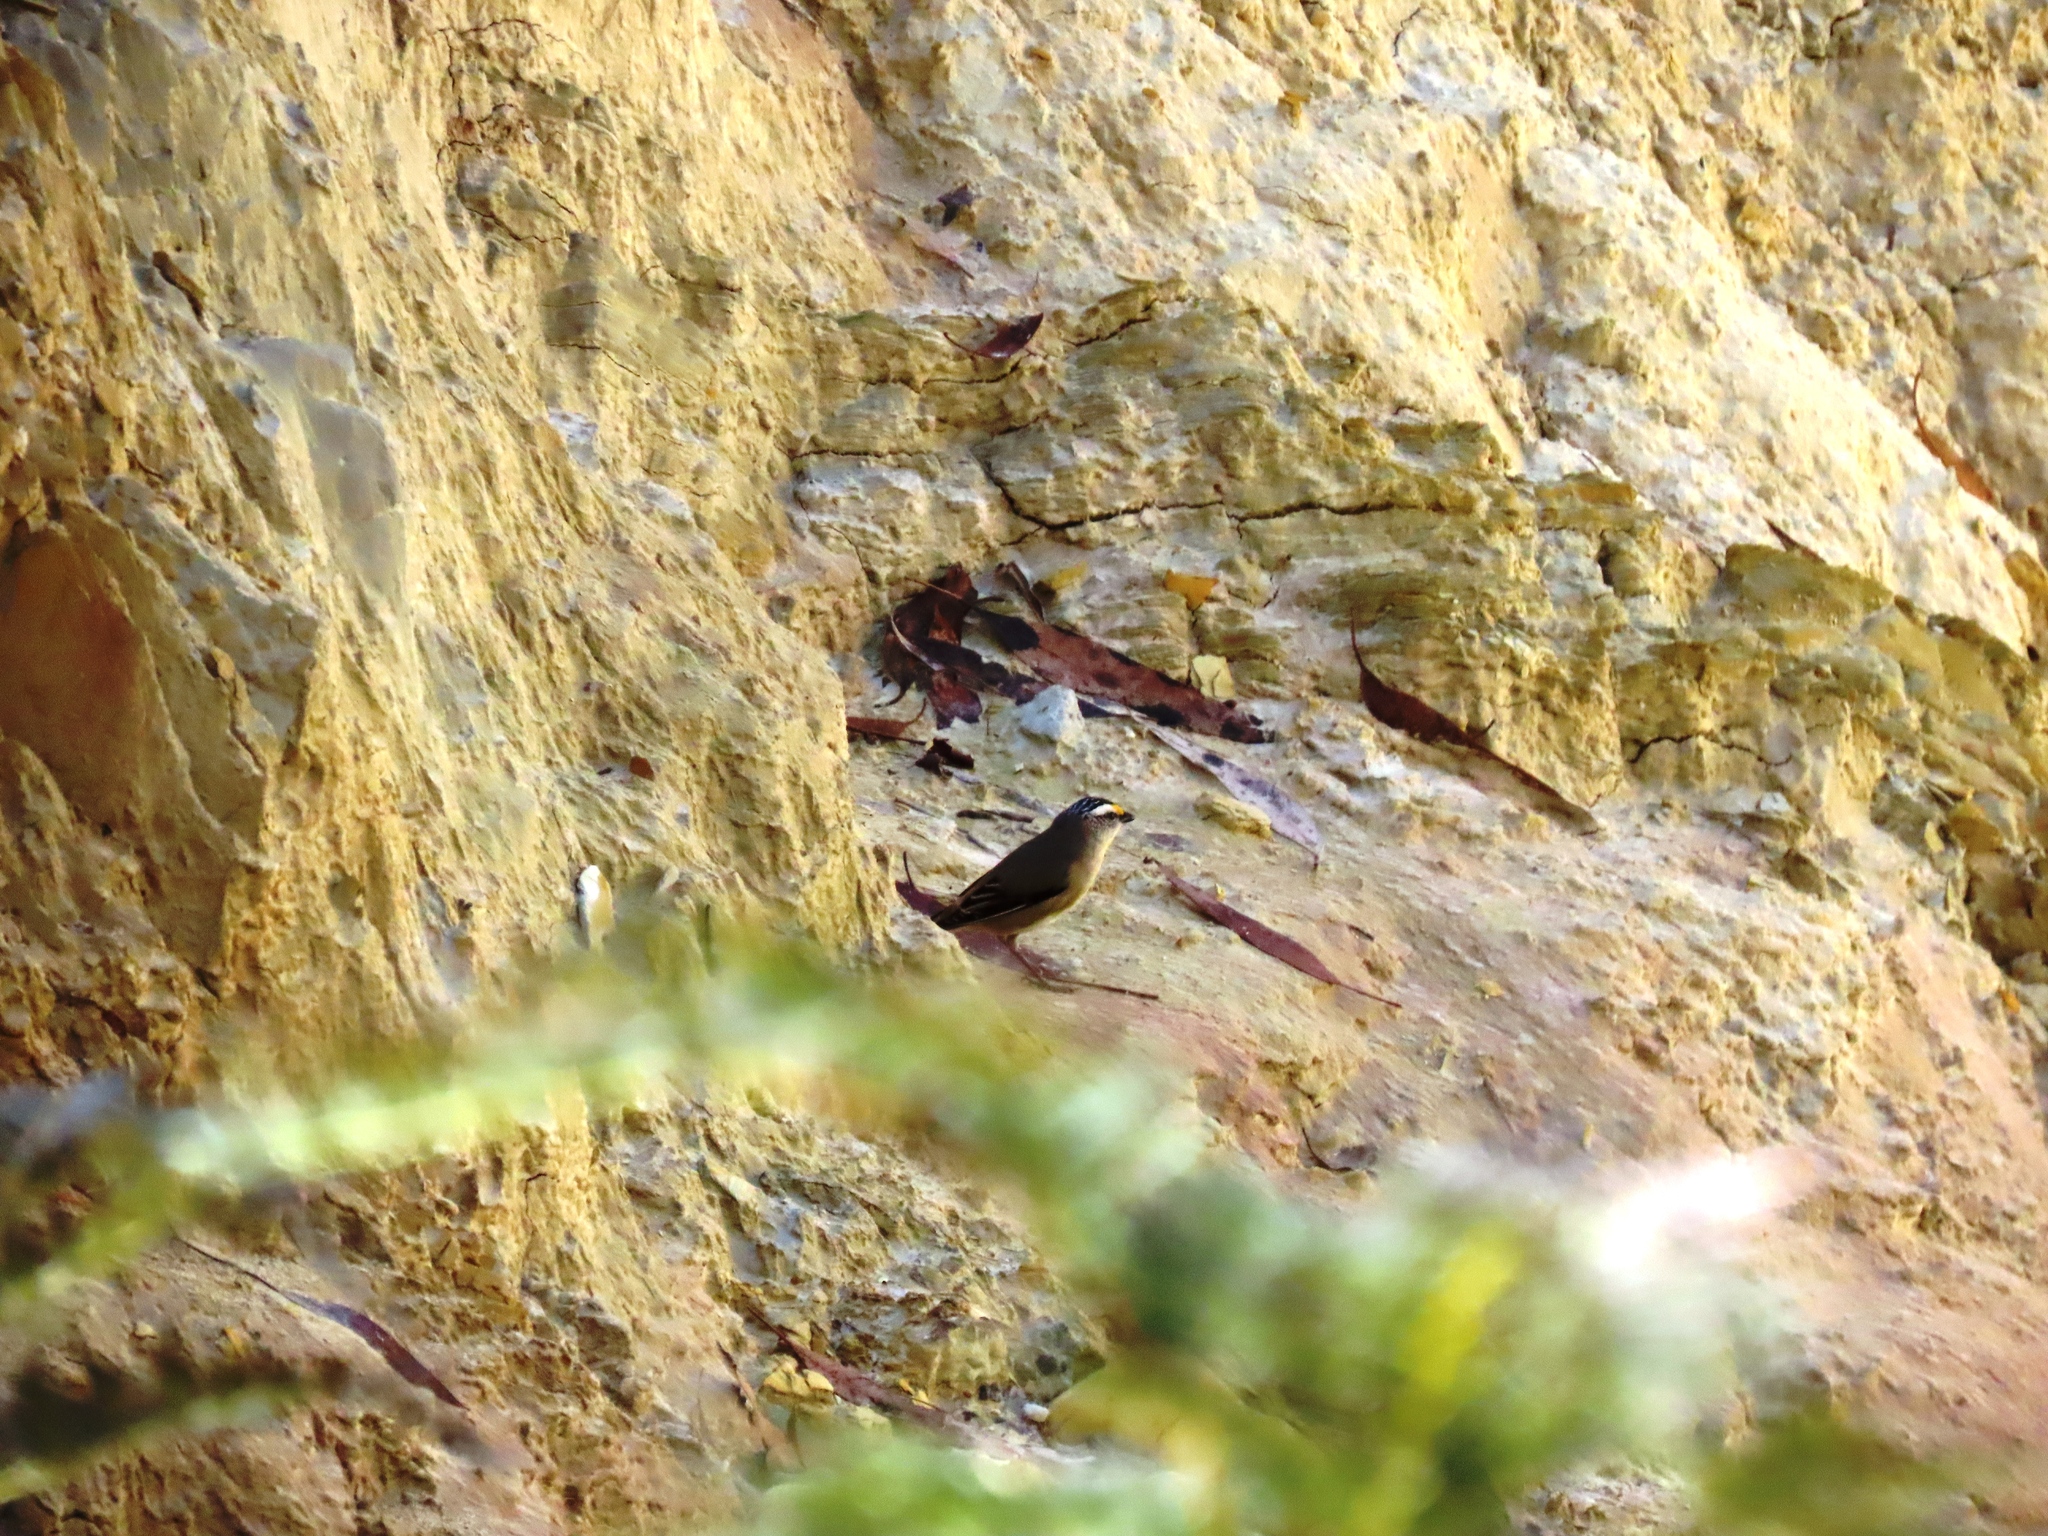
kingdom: Animalia
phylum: Chordata
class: Aves
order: Passeriformes
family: Pardalotidae
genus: Pardalotus
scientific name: Pardalotus striatus
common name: Striated pardalote
